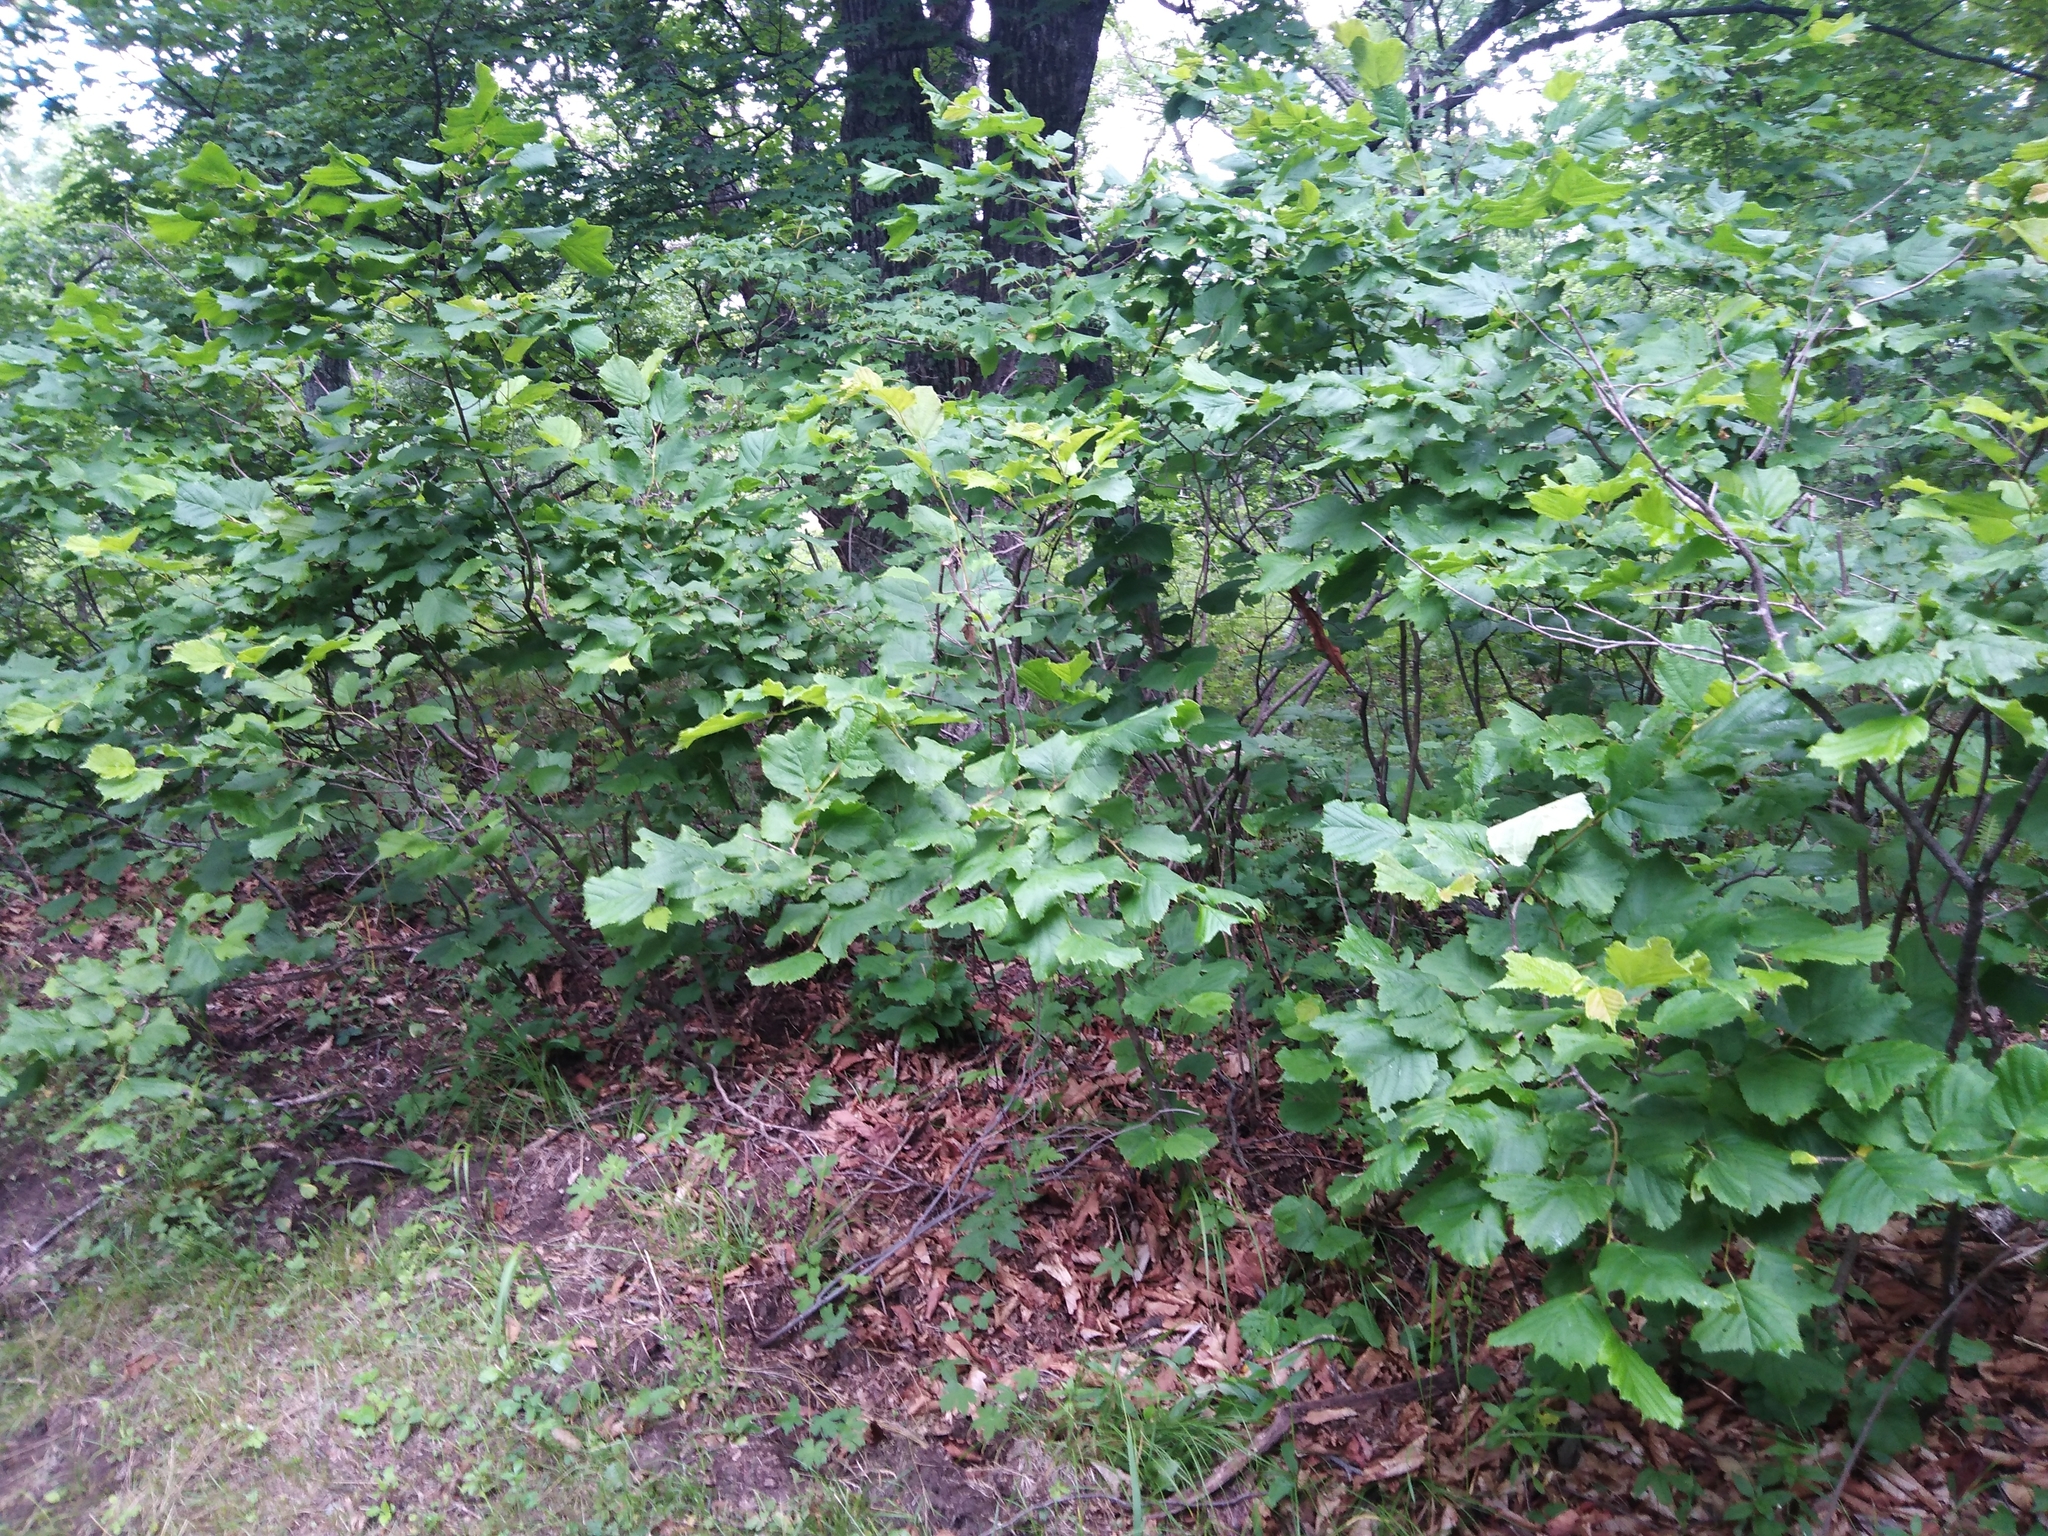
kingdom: Plantae
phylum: Tracheophyta
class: Magnoliopsida
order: Fagales
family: Betulaceae
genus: Corylus
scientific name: Corylus heterophylla
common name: Siberian hazelnut
